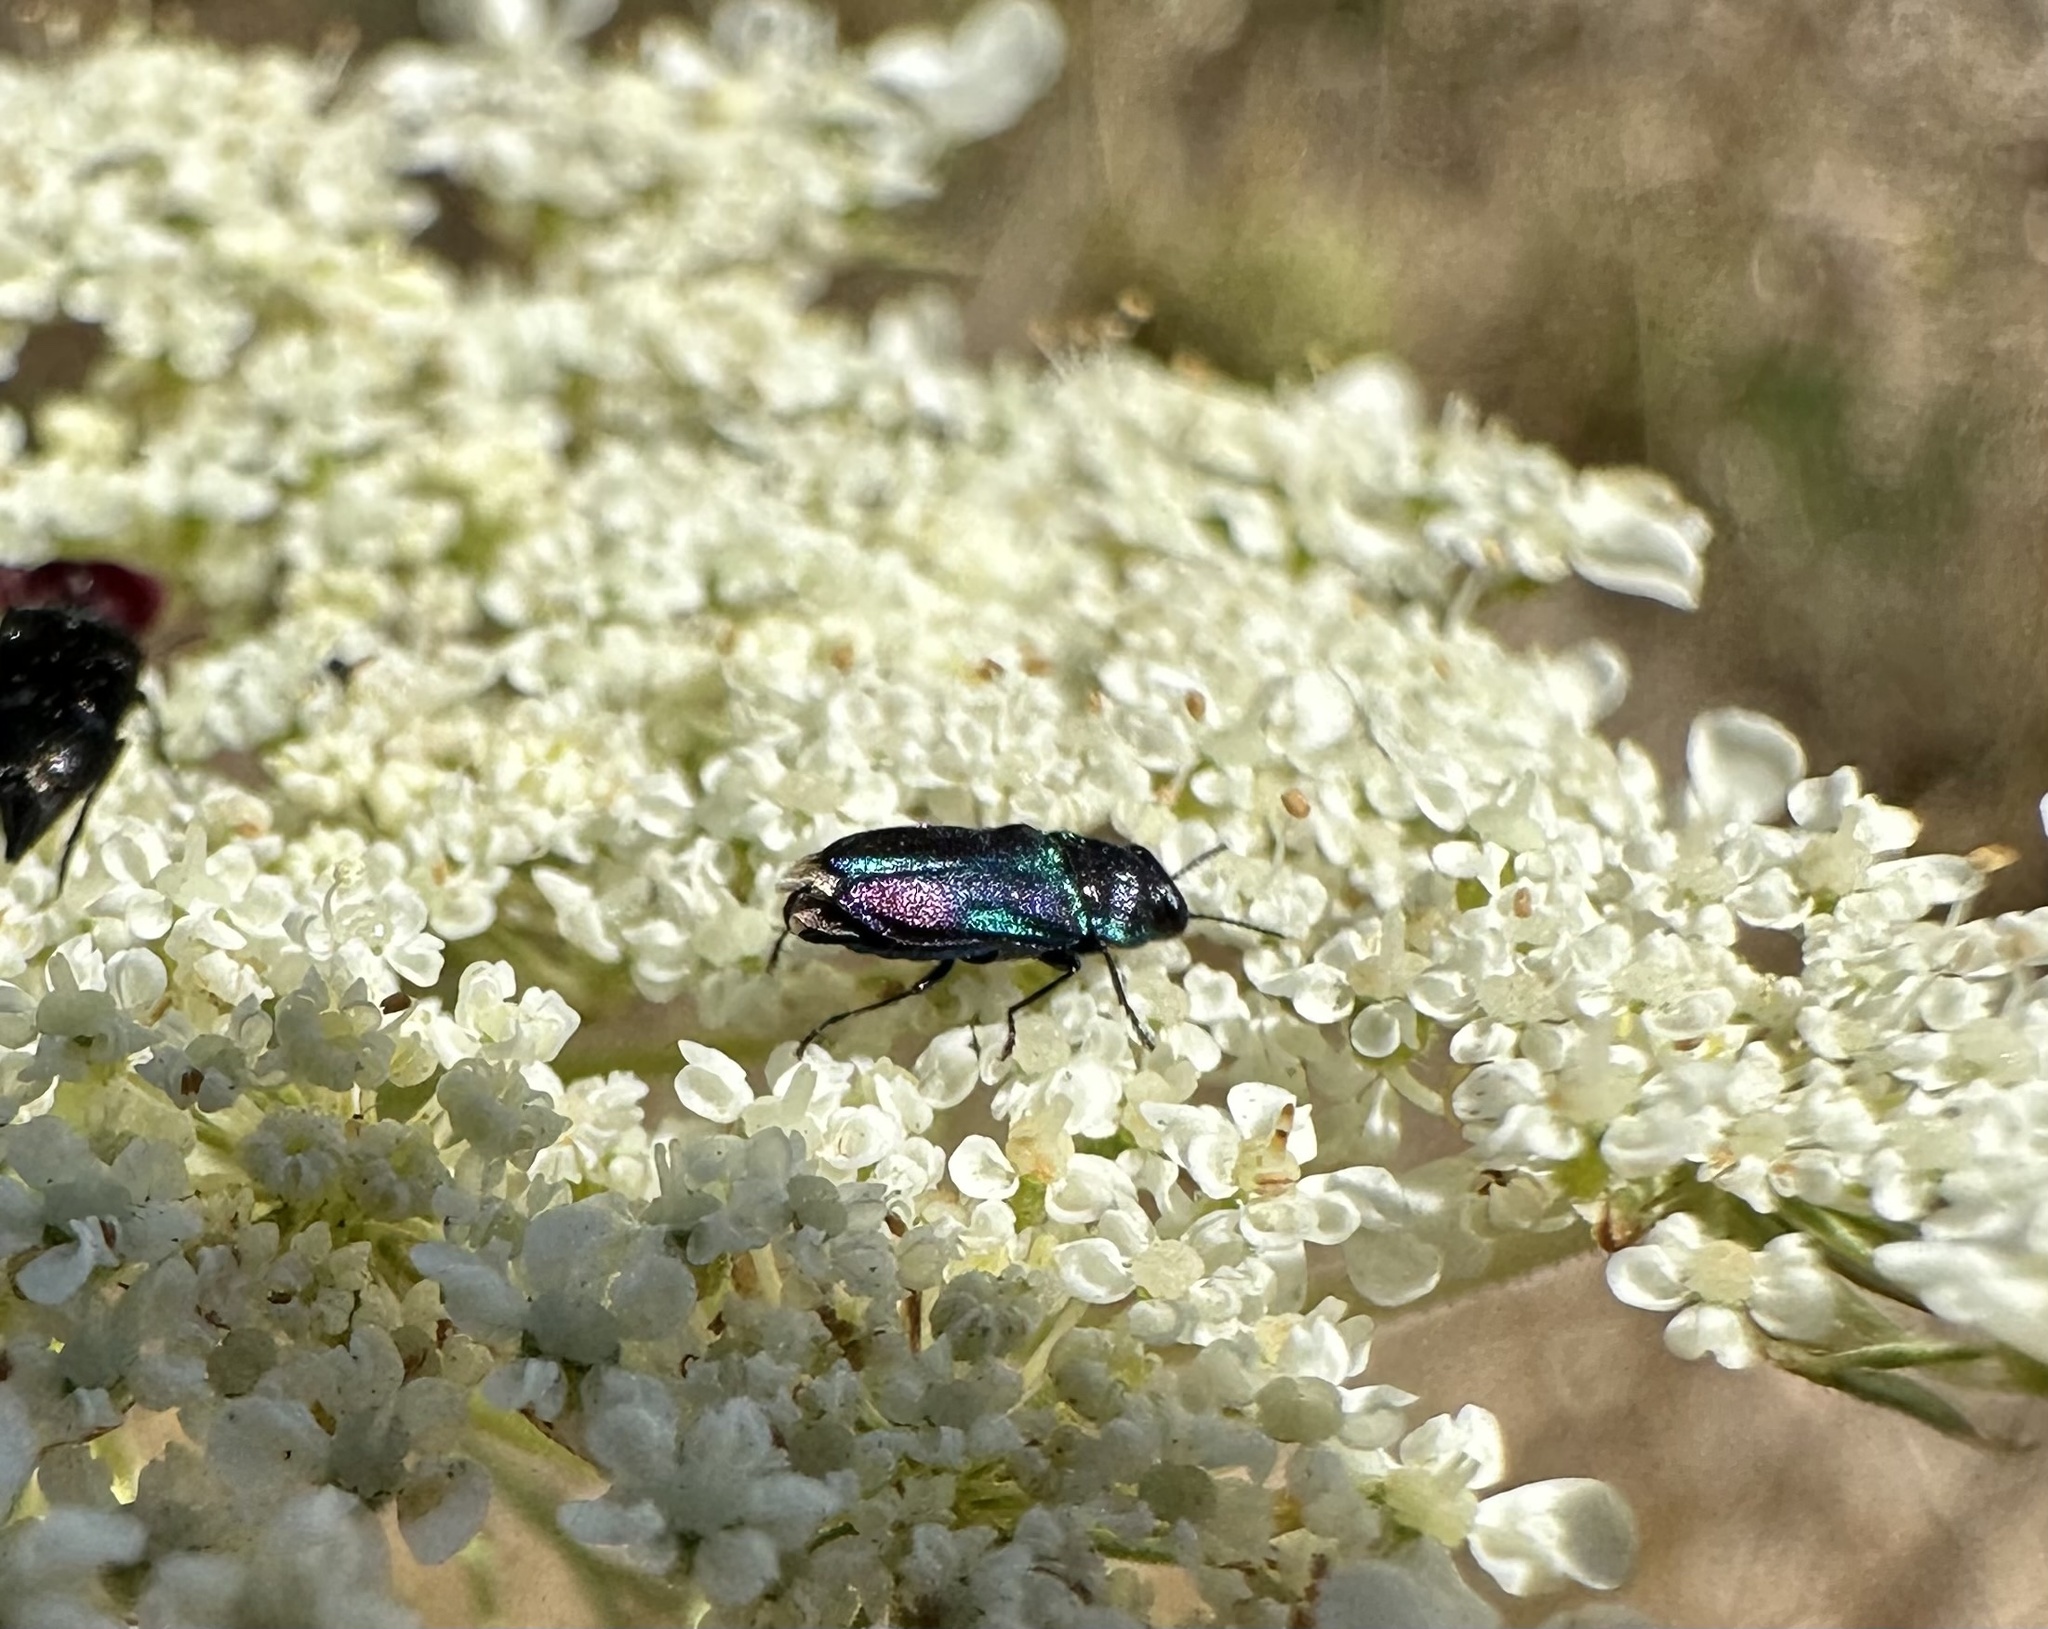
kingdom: Animalia
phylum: Arthropoda
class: Insecta
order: Coleoptera
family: Buprestidae
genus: Bilyaxia
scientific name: Bilyaxia concinna
